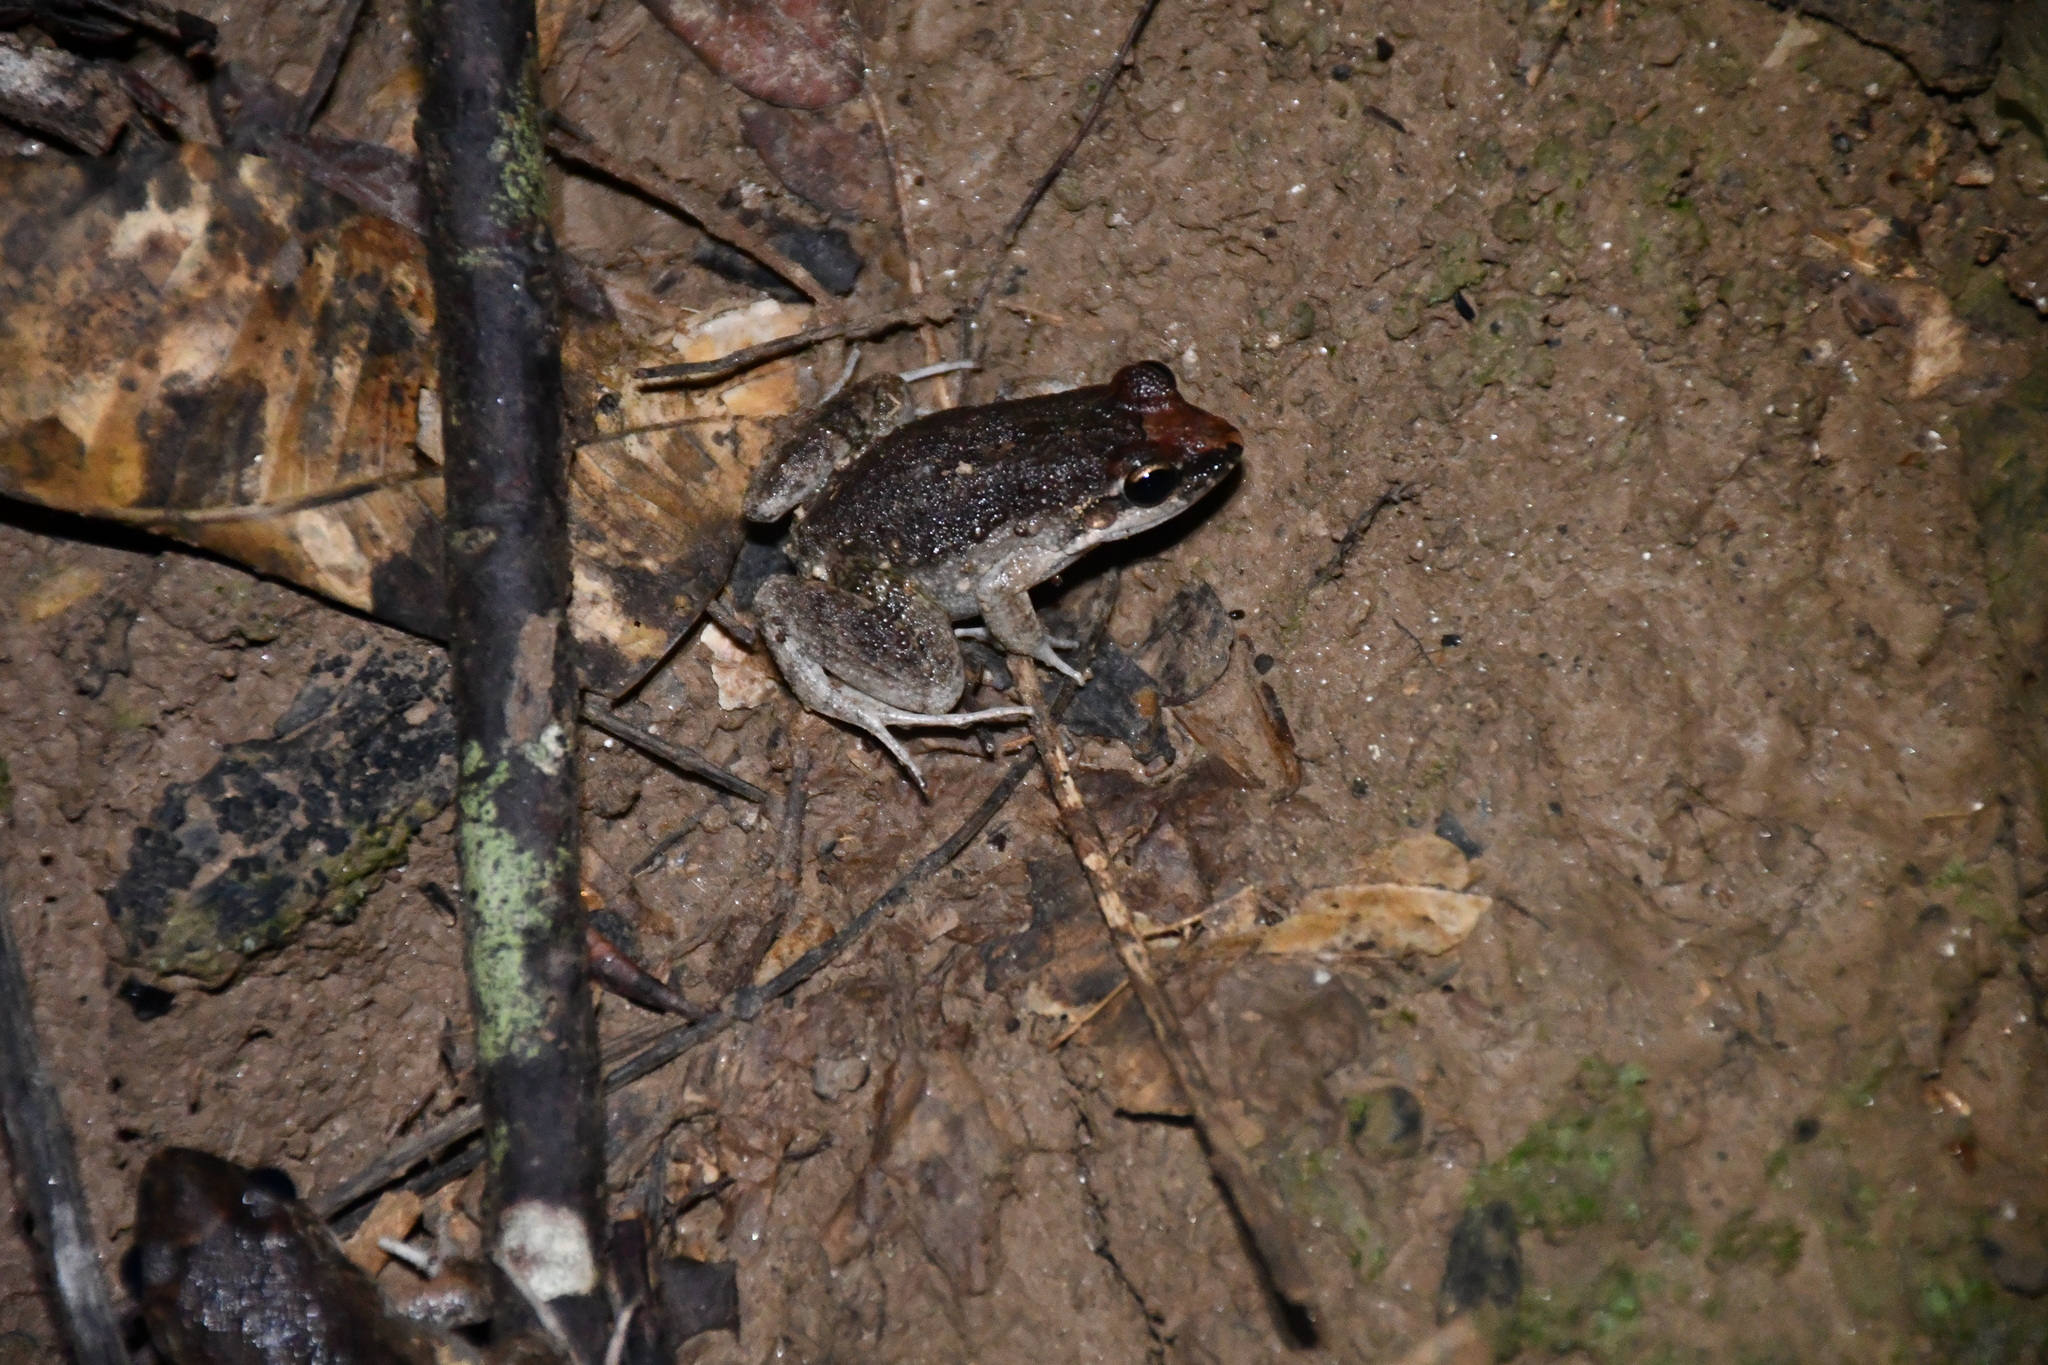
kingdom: Animalia
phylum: Chordata
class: Amphibia
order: Anura
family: Leptodactylidae
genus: Leptodactylus
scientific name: Leptodactylus petersii
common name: Peters' thin-toed frog
